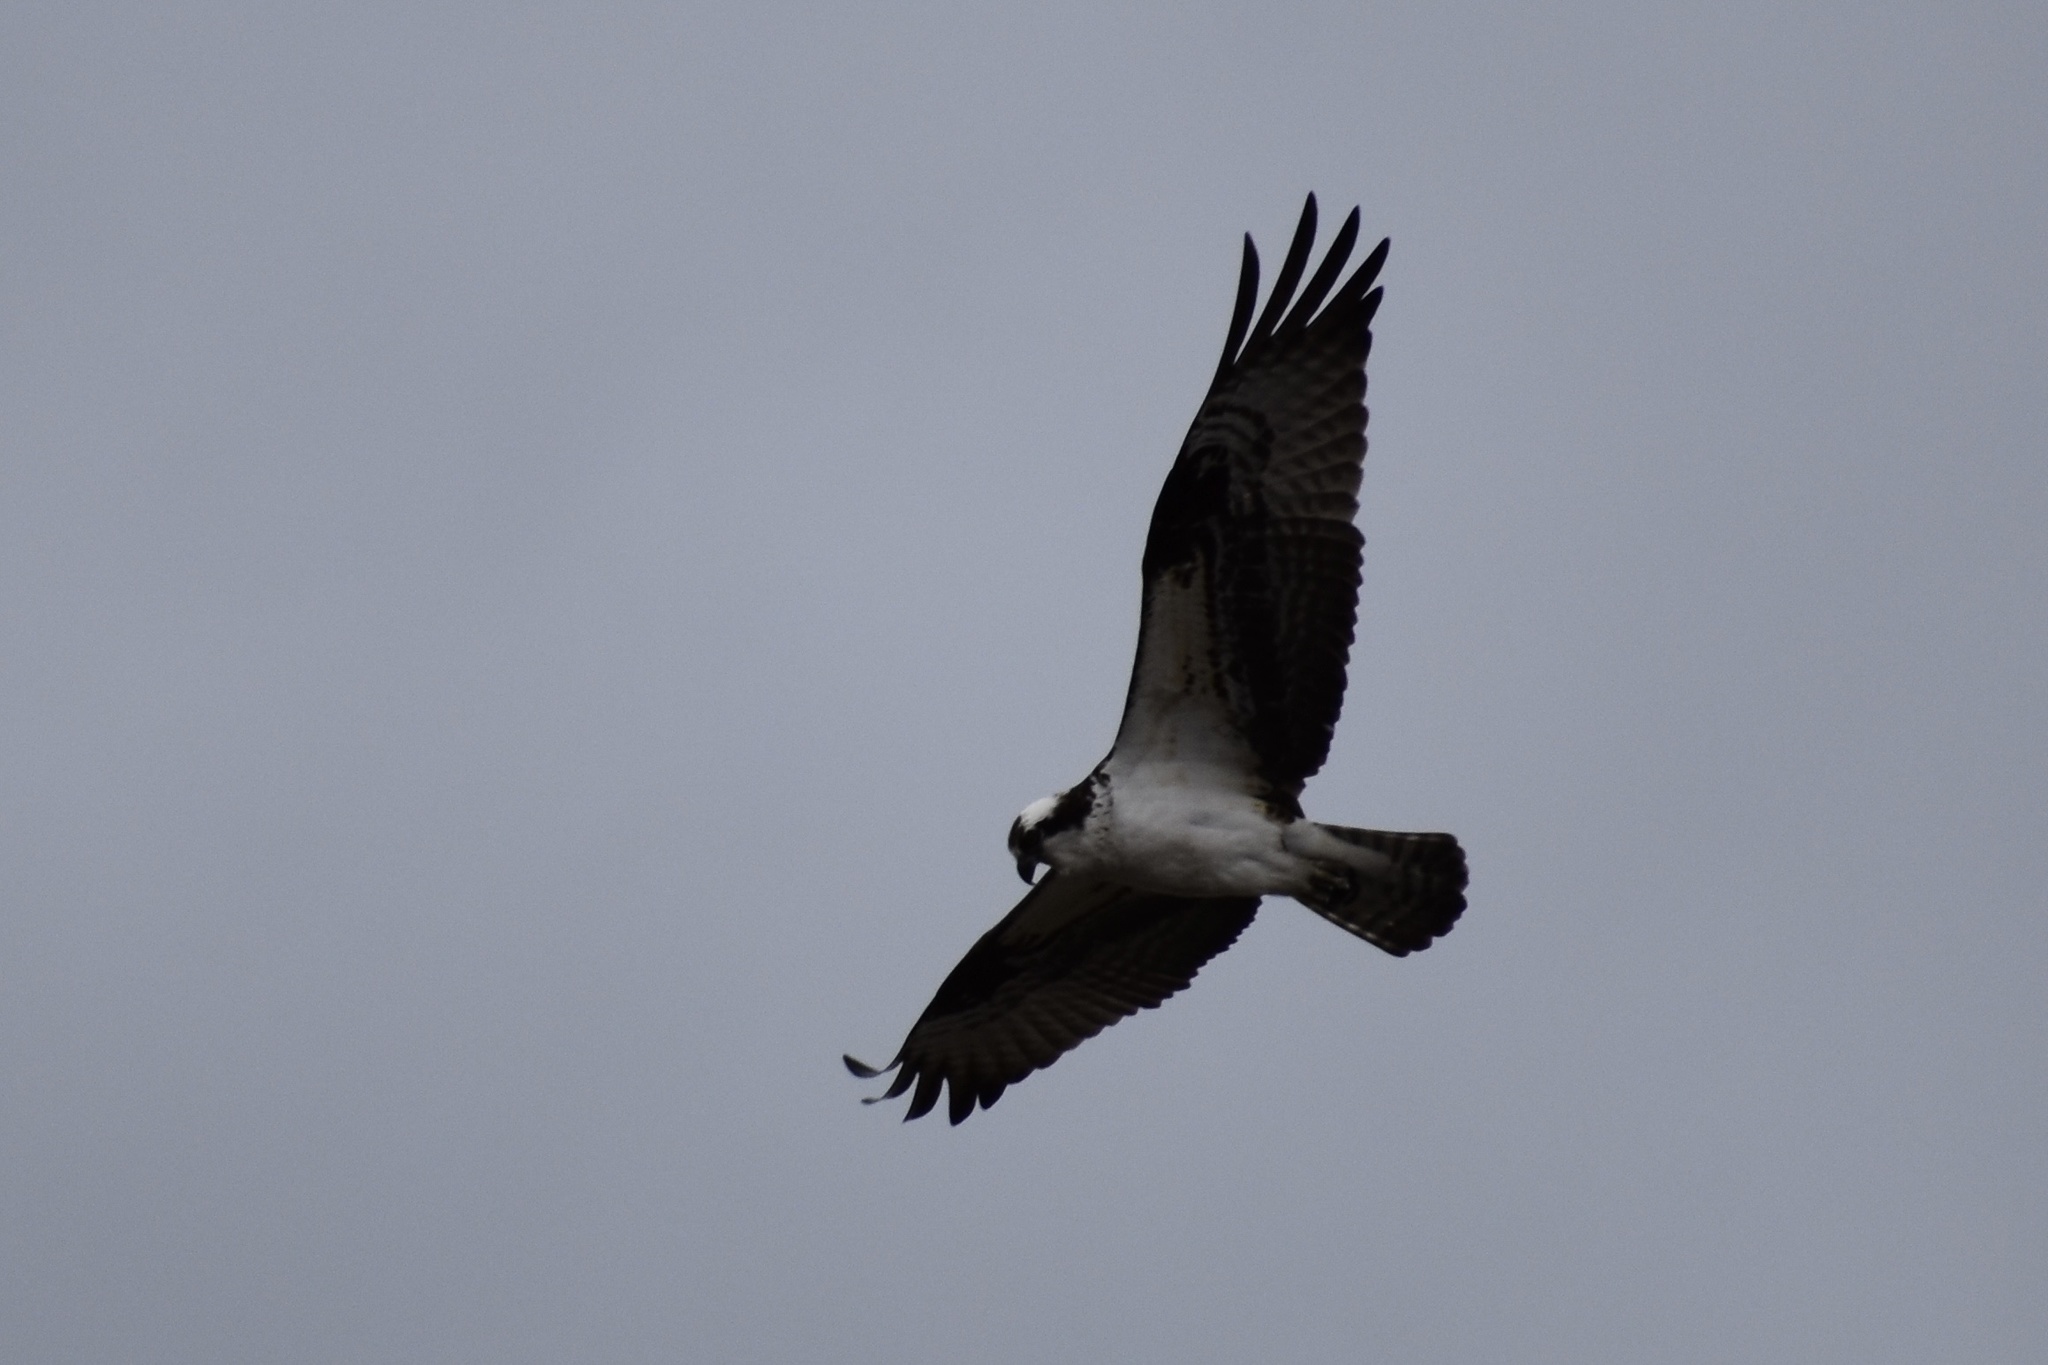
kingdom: Animalia
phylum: Chordata
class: Aves
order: Accipitriformes
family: Pandionidae
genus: Pandion
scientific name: Pandion haliaetus
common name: Osprey
